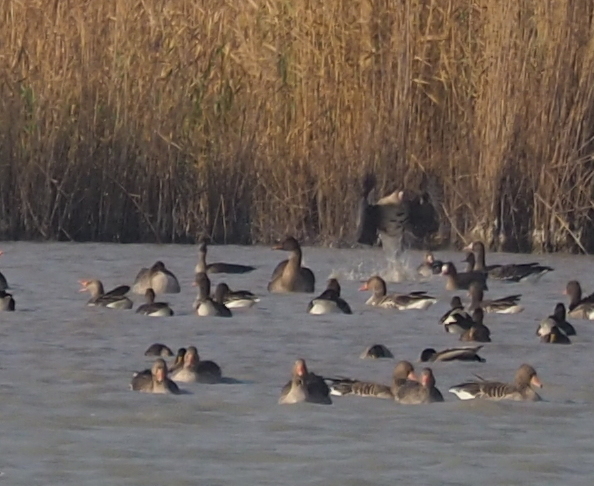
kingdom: Animalia
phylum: Chordata
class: Aves
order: Anseriformes
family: Anatidae
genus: Anser
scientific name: Anser fabalis
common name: Bean goose
